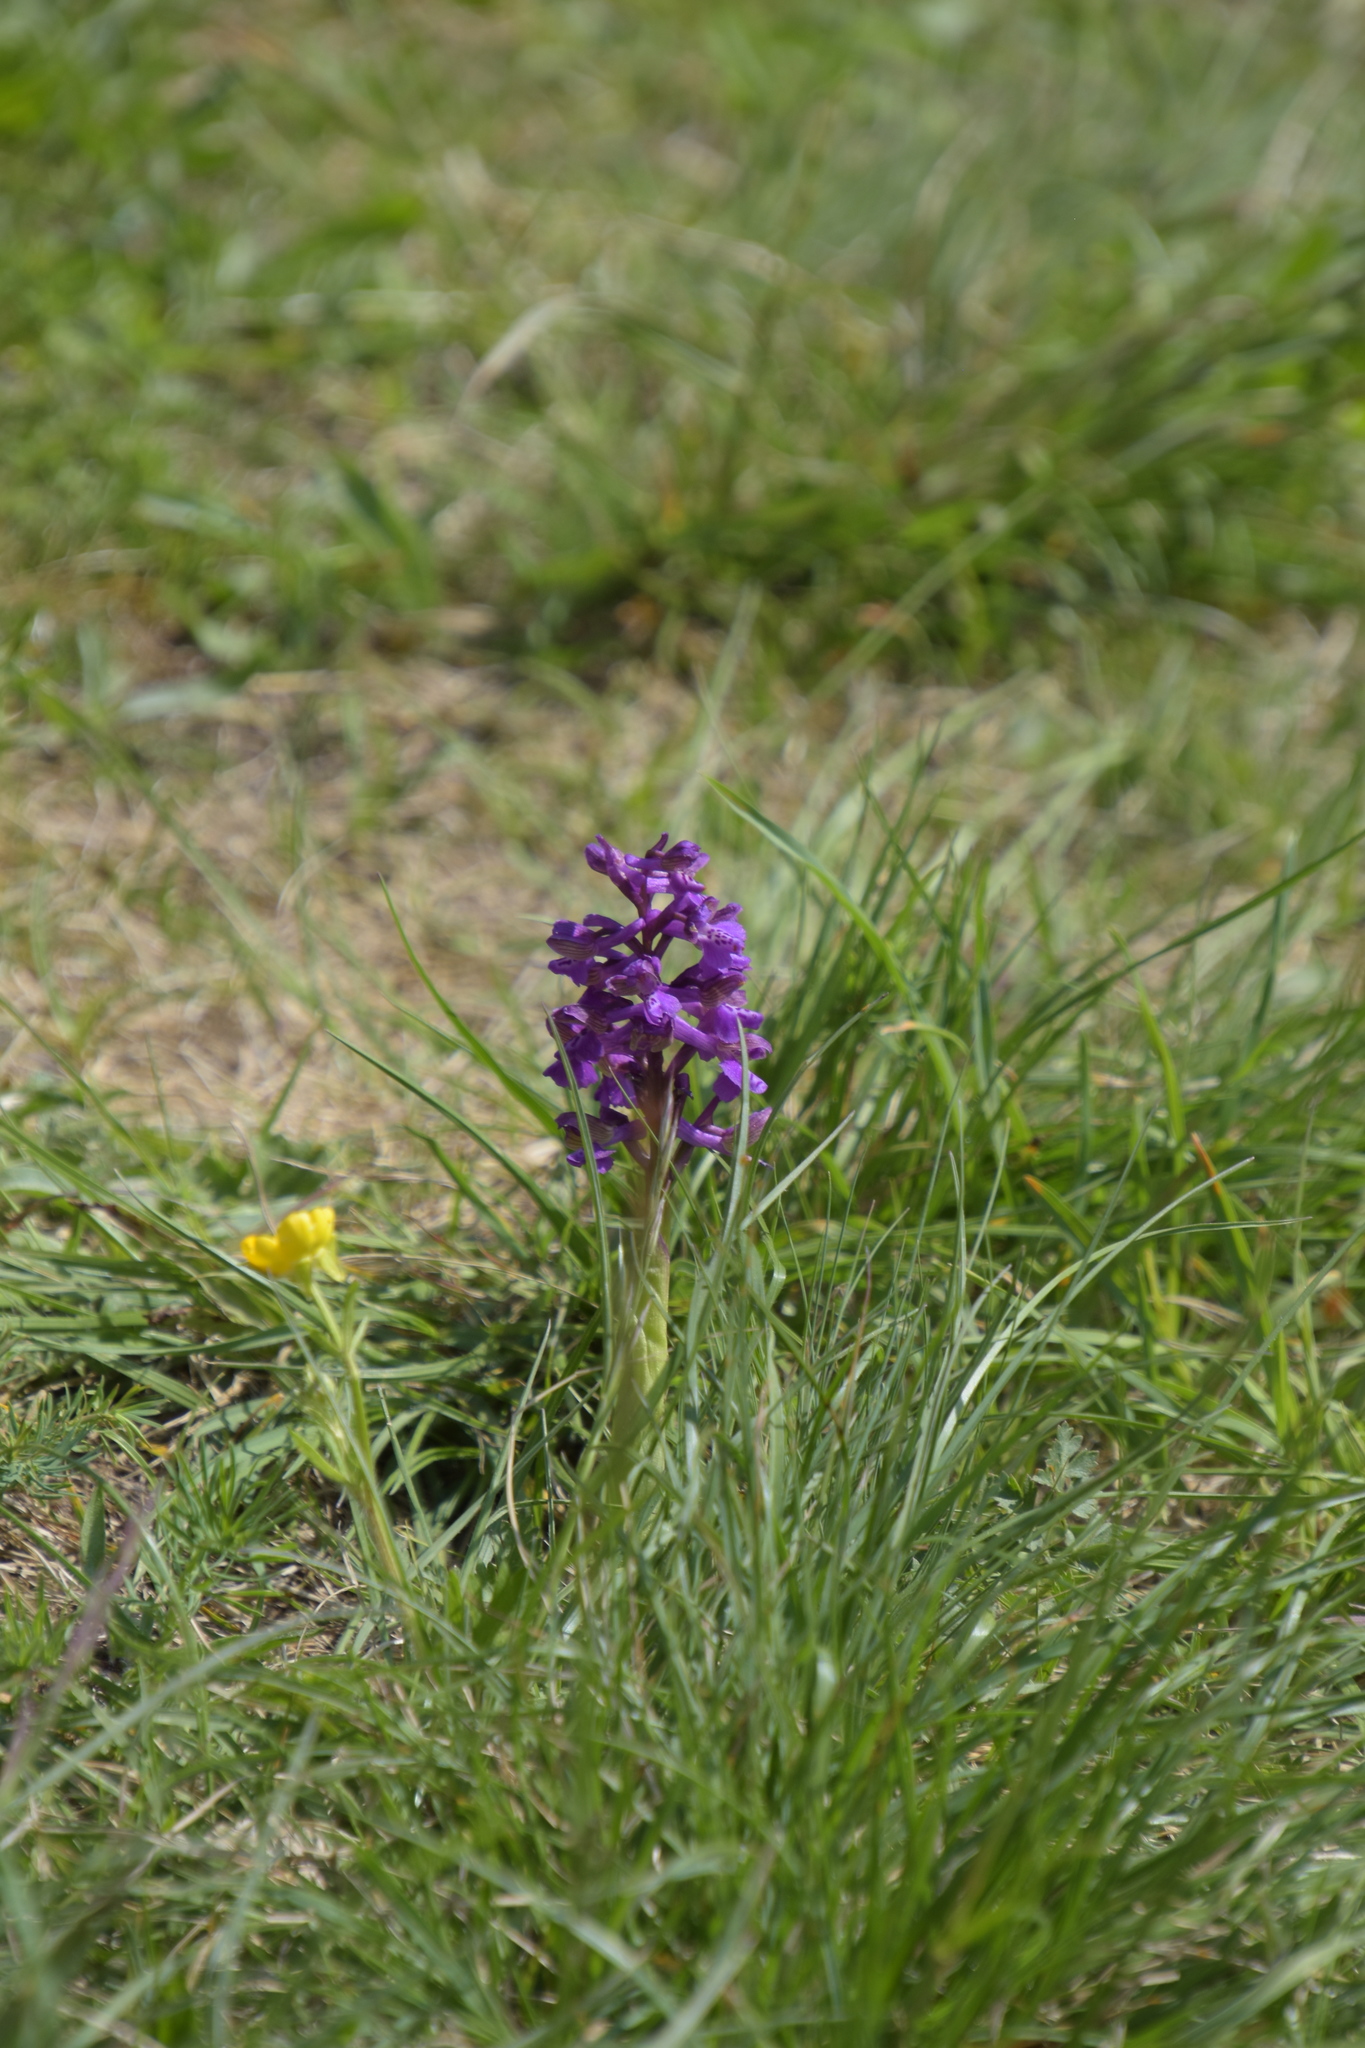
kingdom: Plantae
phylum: Tracheophyta
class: Liliopsida
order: Asparagales
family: Orchidaceae
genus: Anacamptis
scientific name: Anacamptis morio
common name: Green-winged orchid
